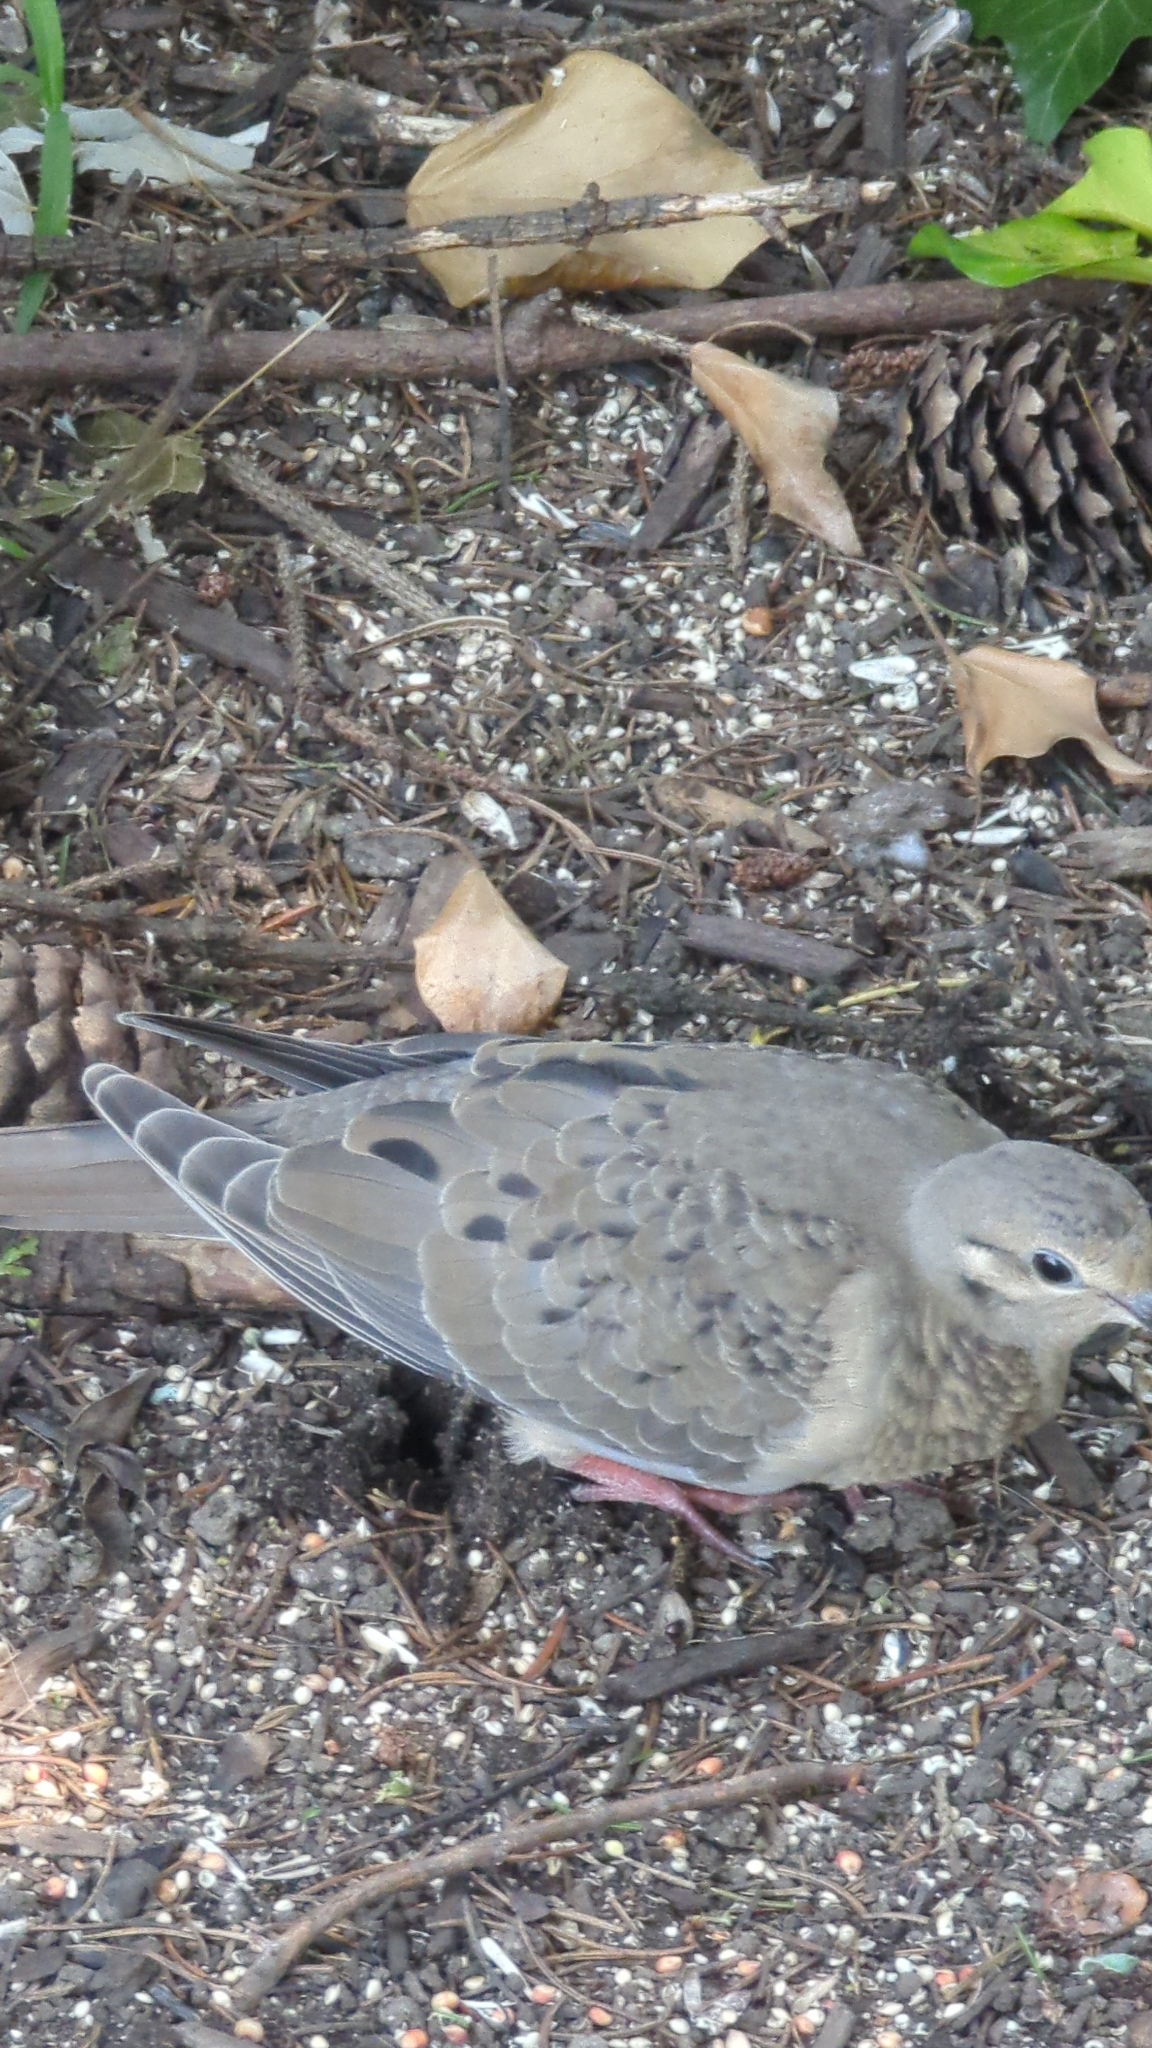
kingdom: Animalia
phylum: Chordata
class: Aves
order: Columbiformes
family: Columbidae
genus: Zenaida
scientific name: Zenaida macroura
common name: Mourning dove
